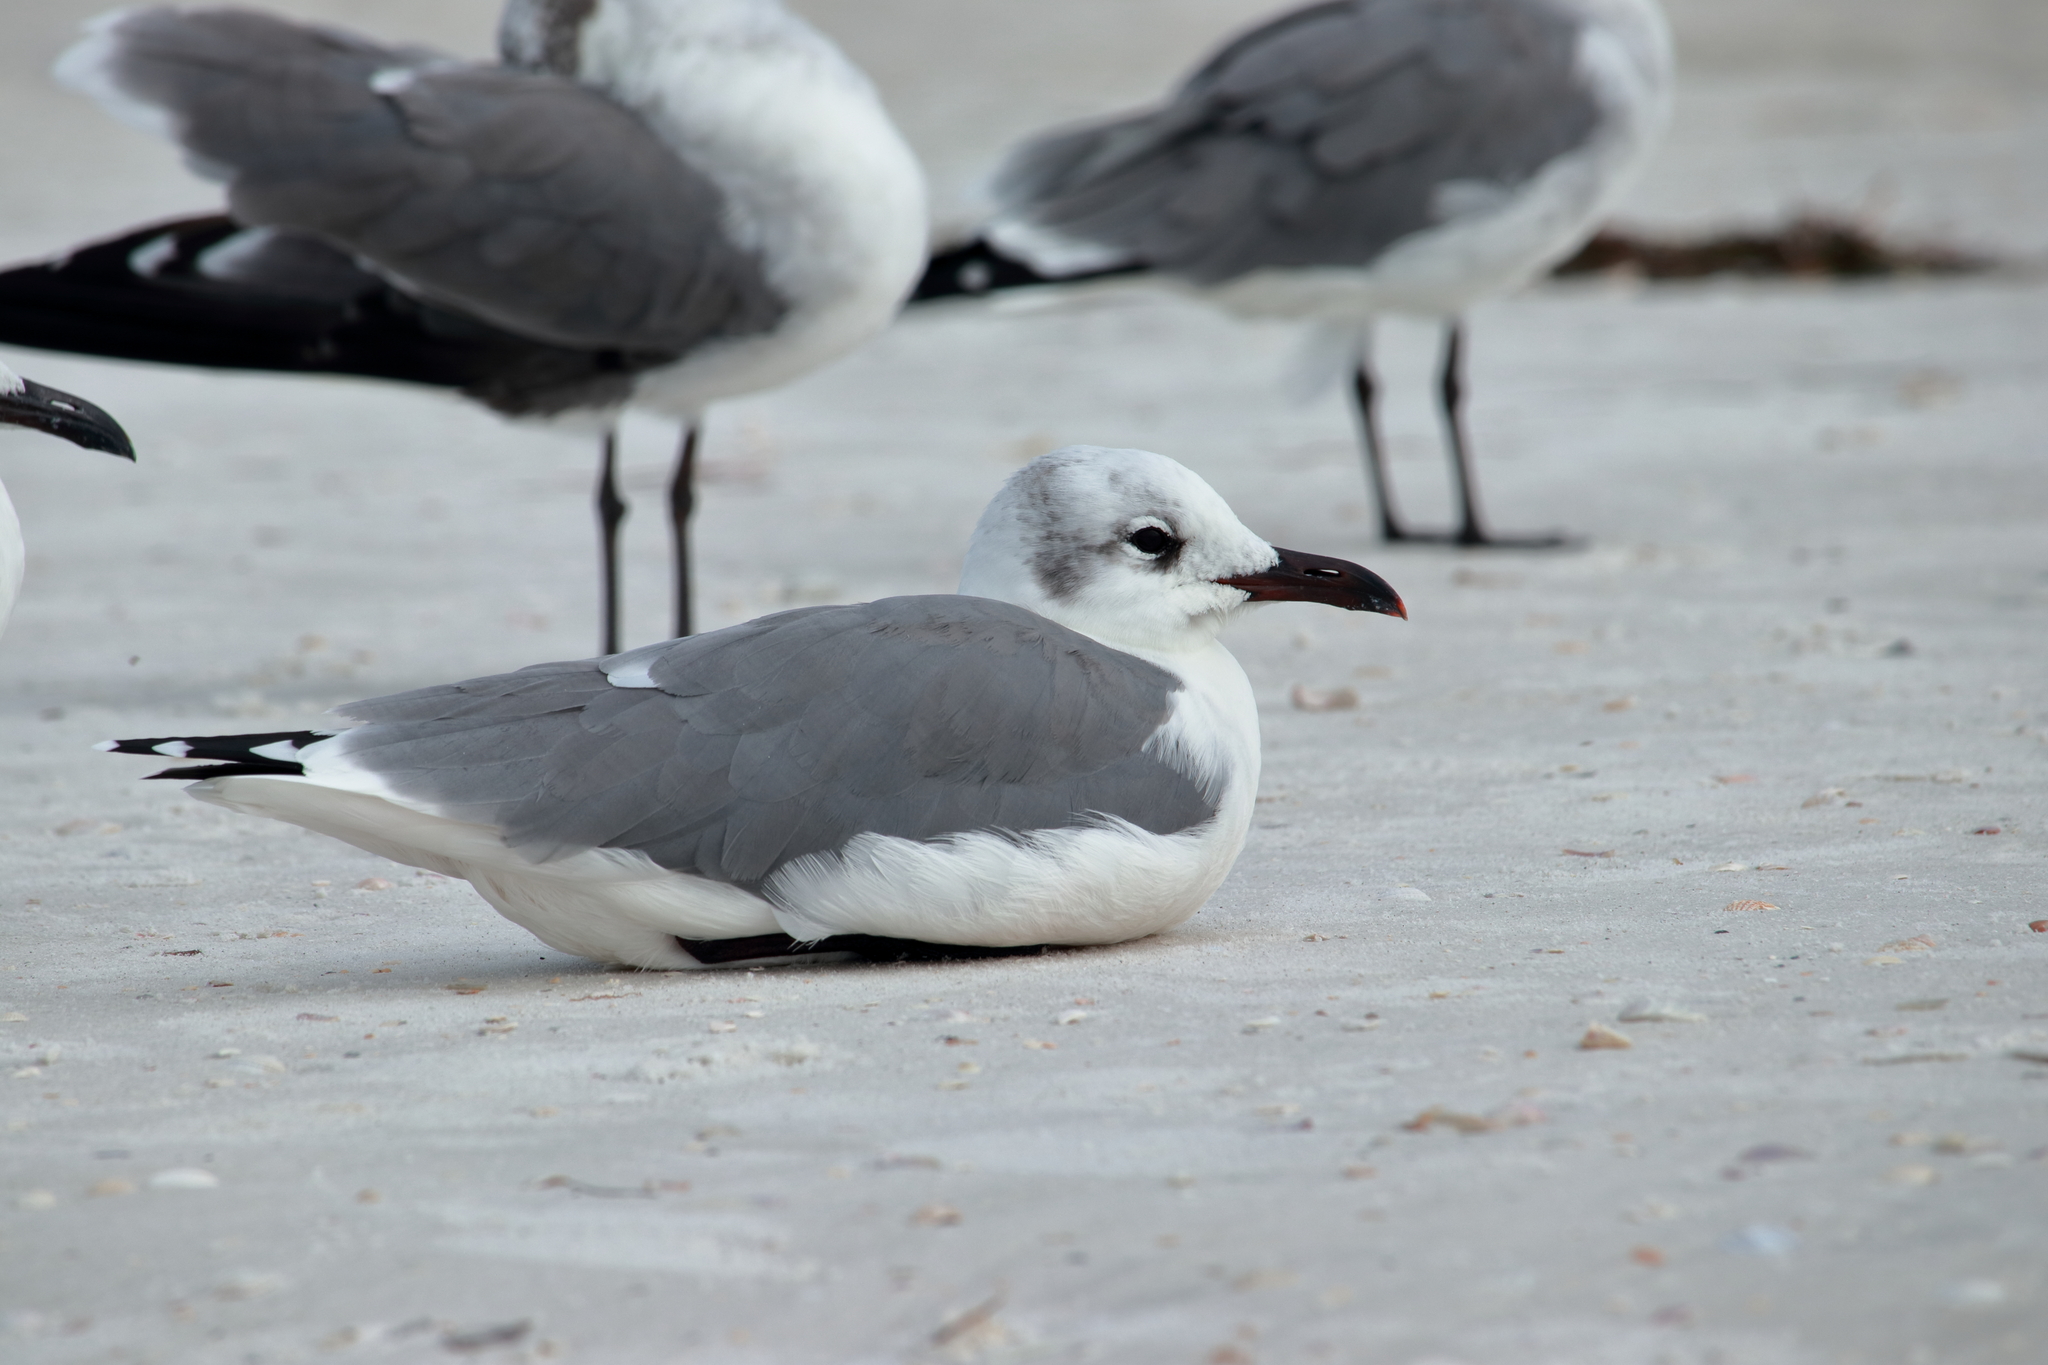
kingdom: Animalia
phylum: Chordata
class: Aves
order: Charadriiformes
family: Laridae
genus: Leucophaeus
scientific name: Leucophaeus atricilla
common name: Laughing gull
